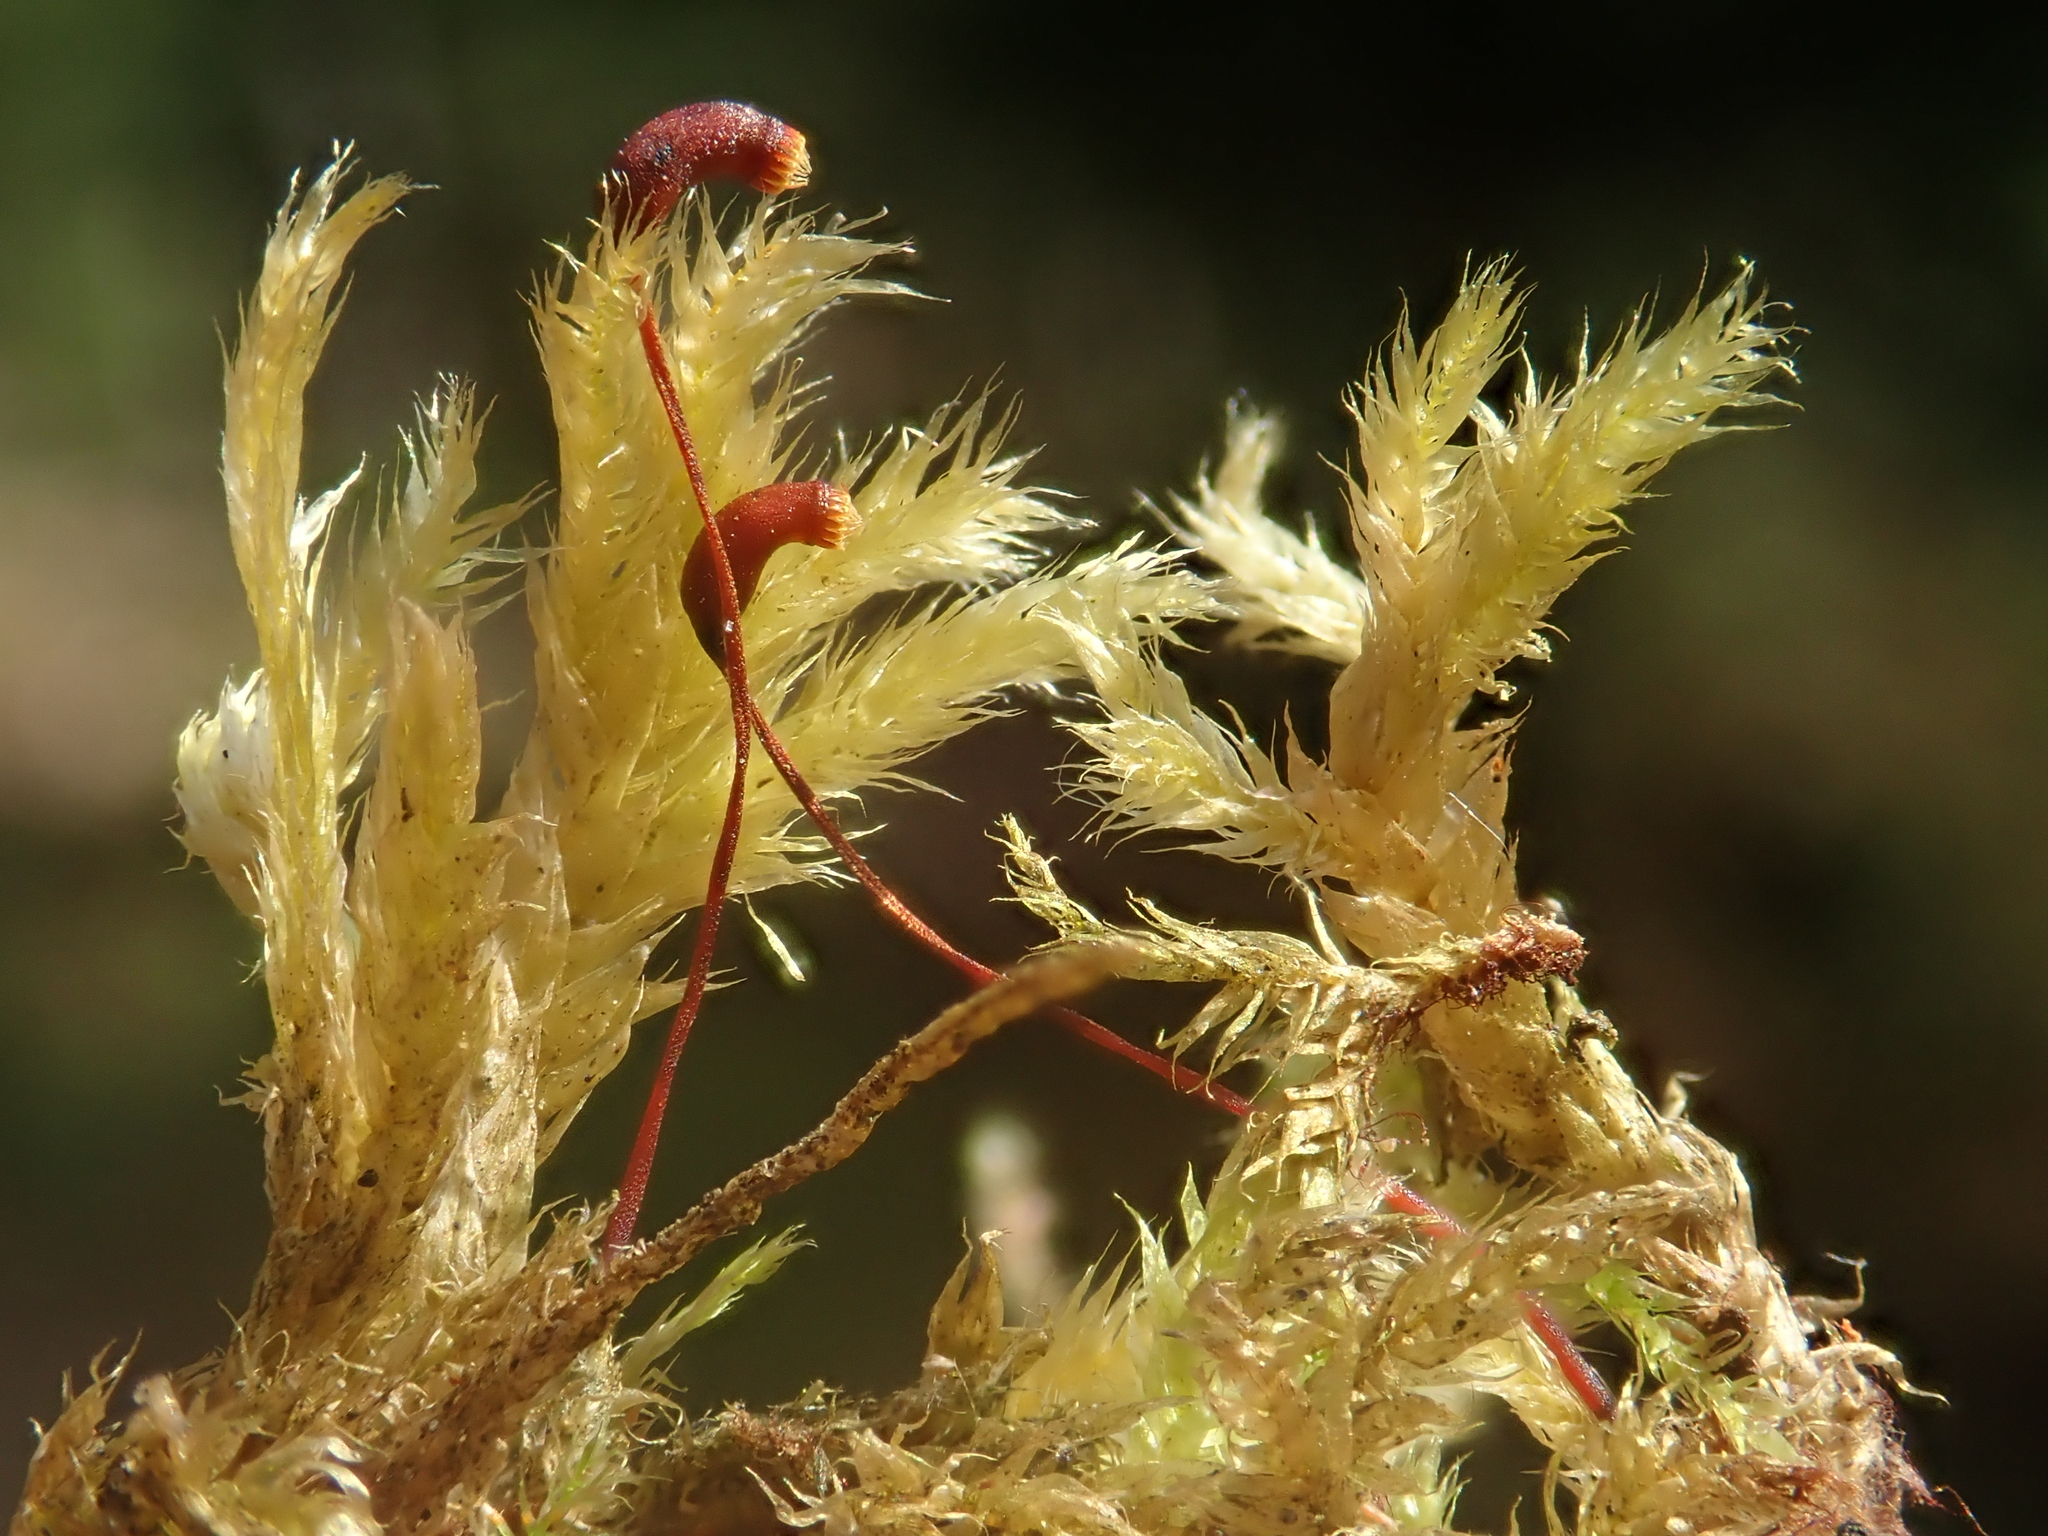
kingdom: Plantae
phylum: Bryophyta
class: Bryopsida
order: Hypnales
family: Brachytheciaceae
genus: Brachythecium
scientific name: Brachythecium rutabulum
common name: Rough-stalked feather-moss
